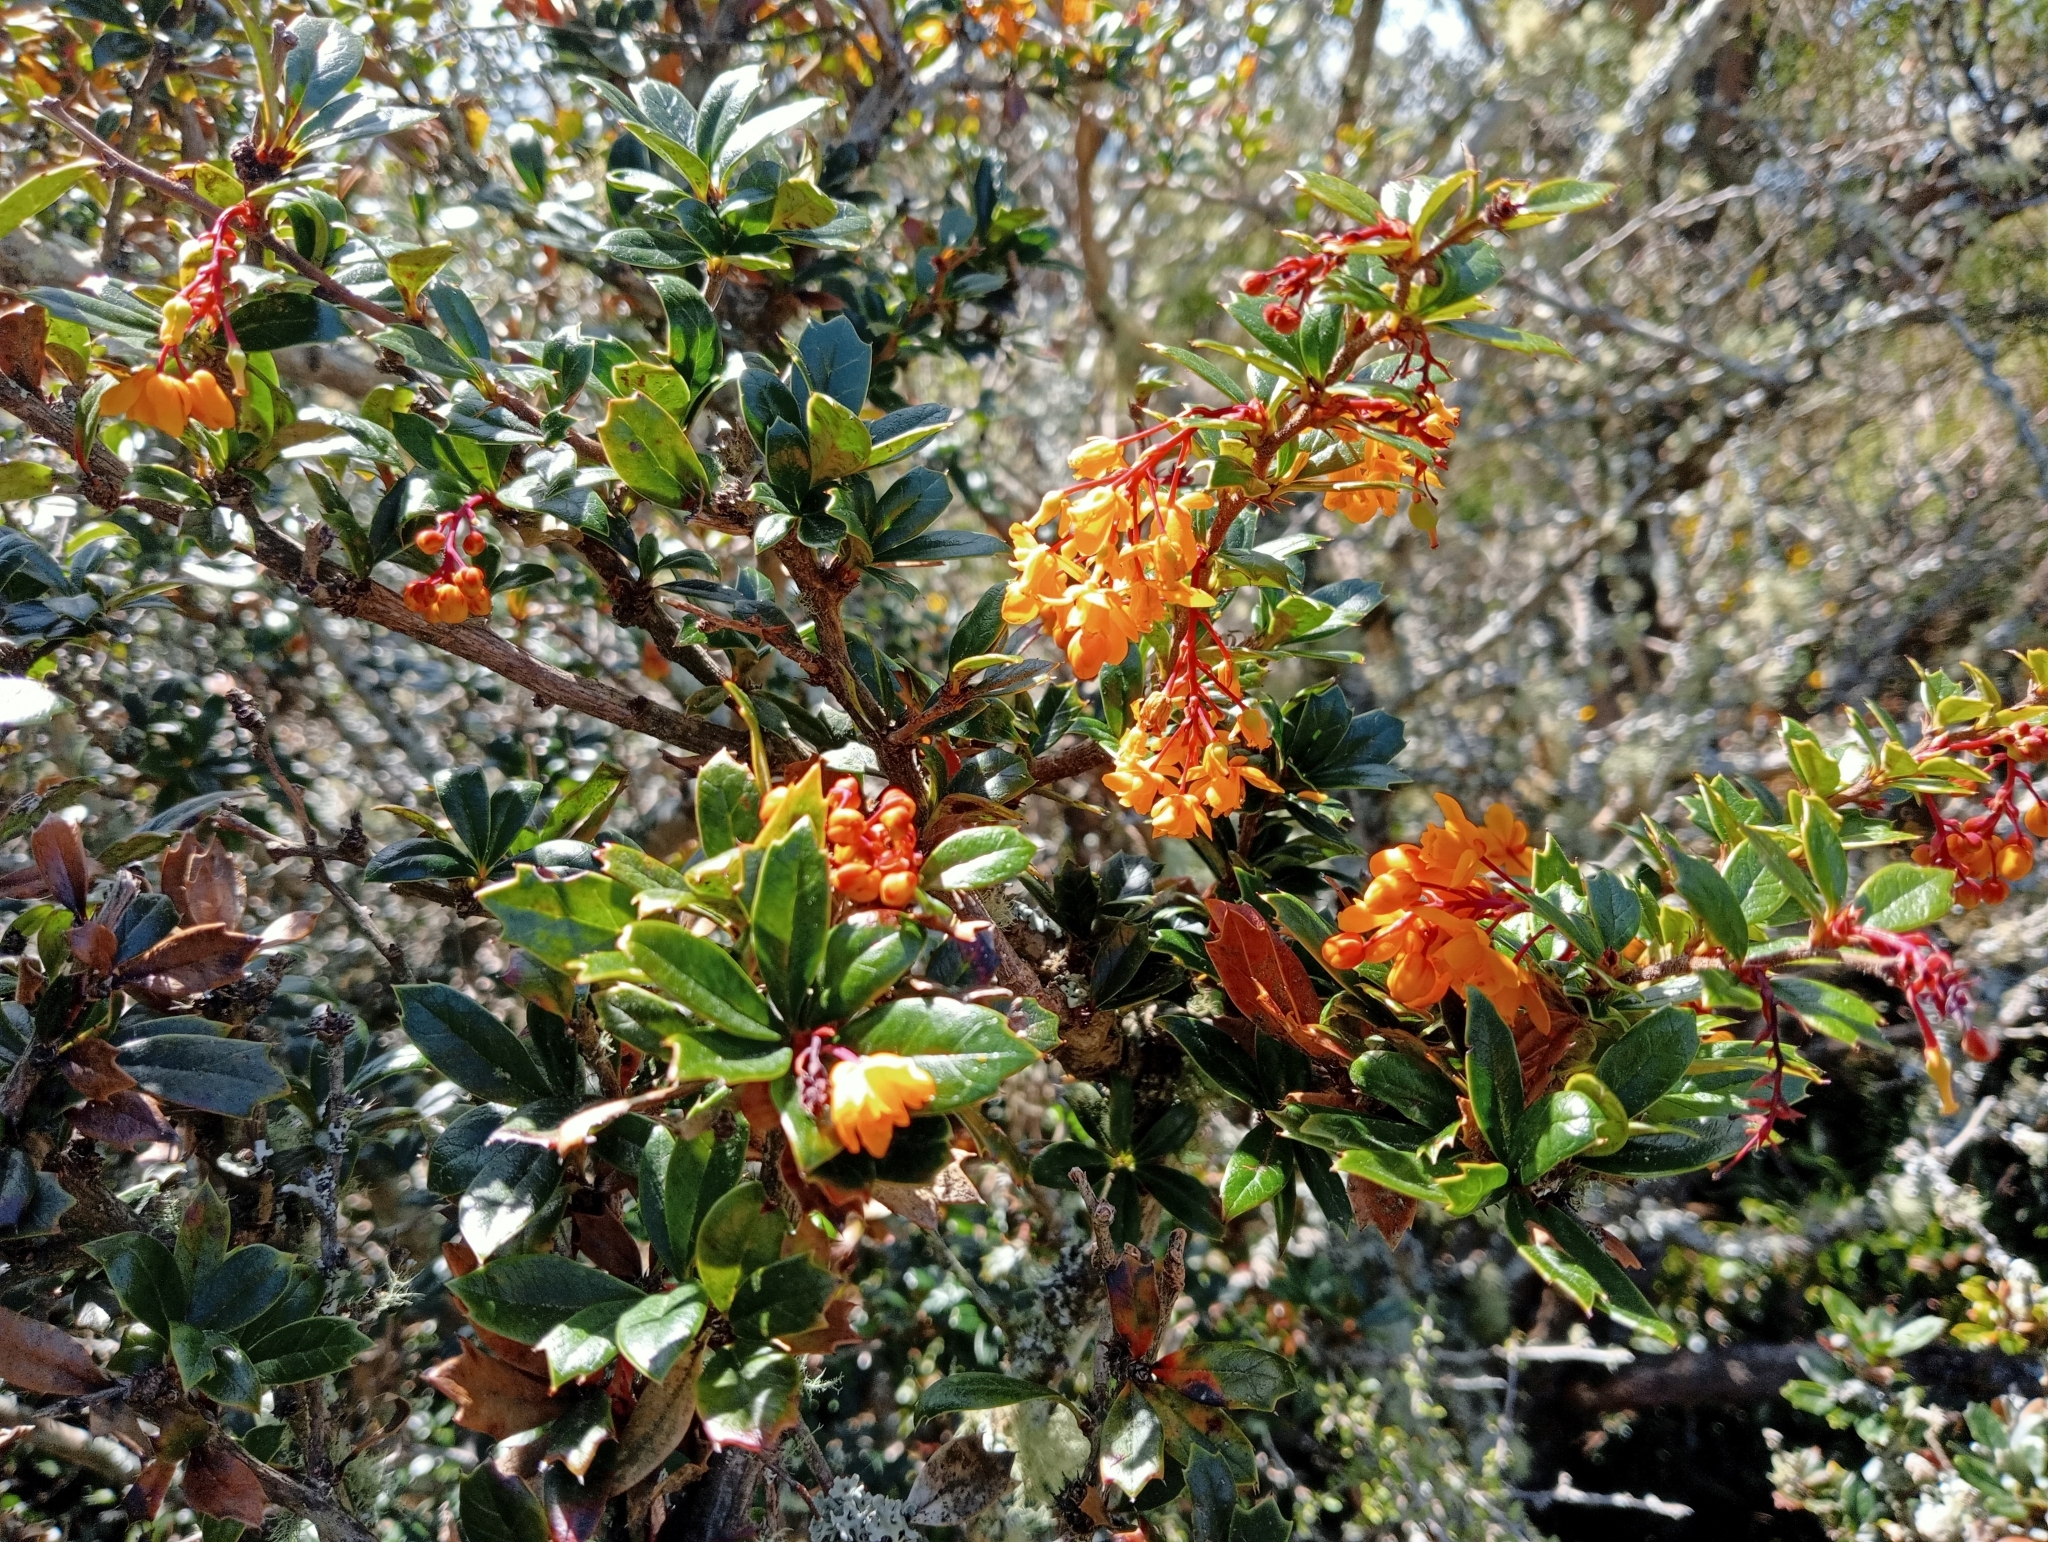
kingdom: Plantae
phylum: Tracheophyta
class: Magnoliopsida
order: Ranunculales
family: Berberidaceae
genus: Berberis
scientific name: Berberis darwinii
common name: Darwin's barberry
